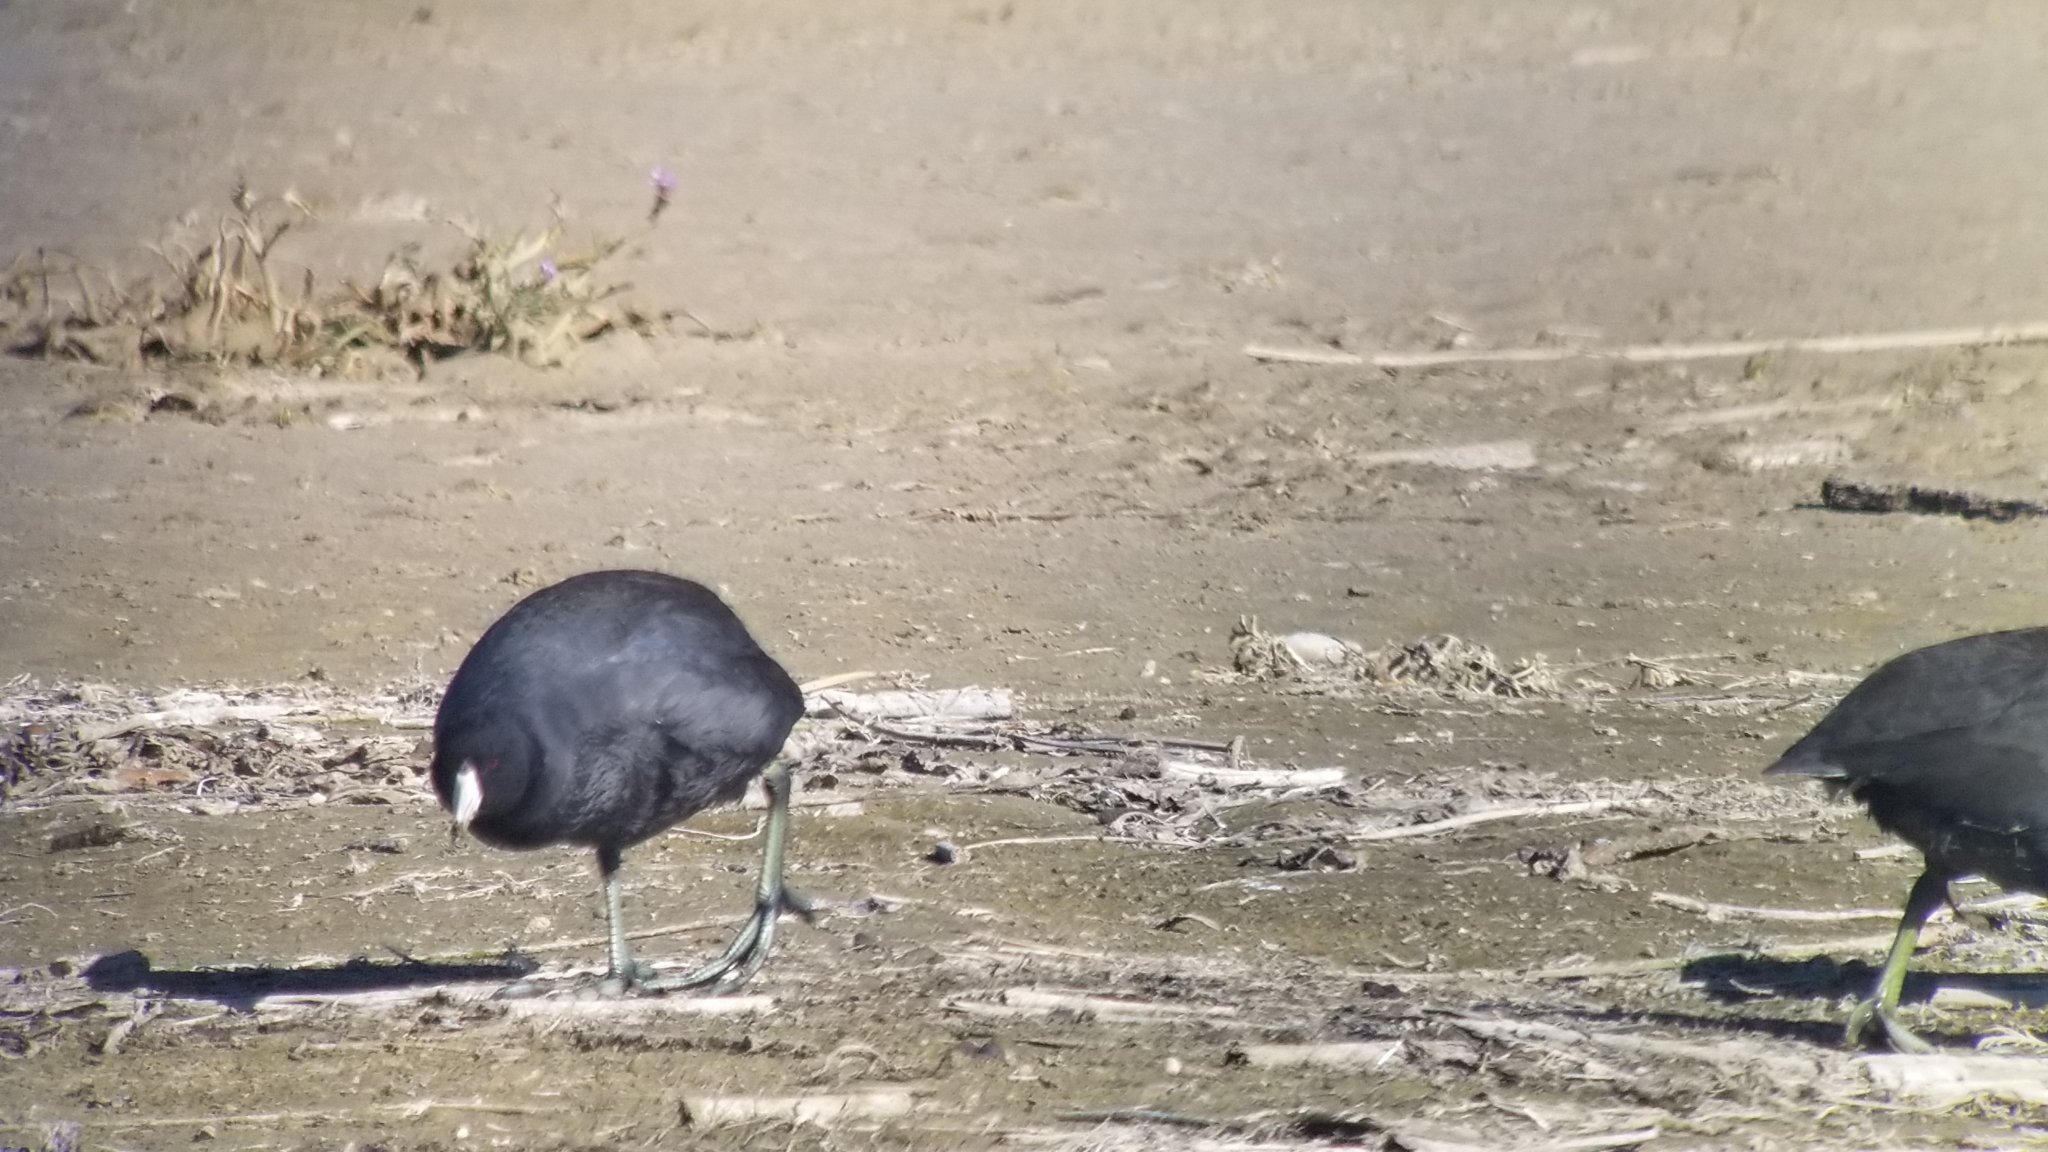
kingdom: Animalia
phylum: Chordata
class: Aves
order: Gruiformes
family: Rallidae
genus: Fulica
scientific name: Fulica americana
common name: American coot
